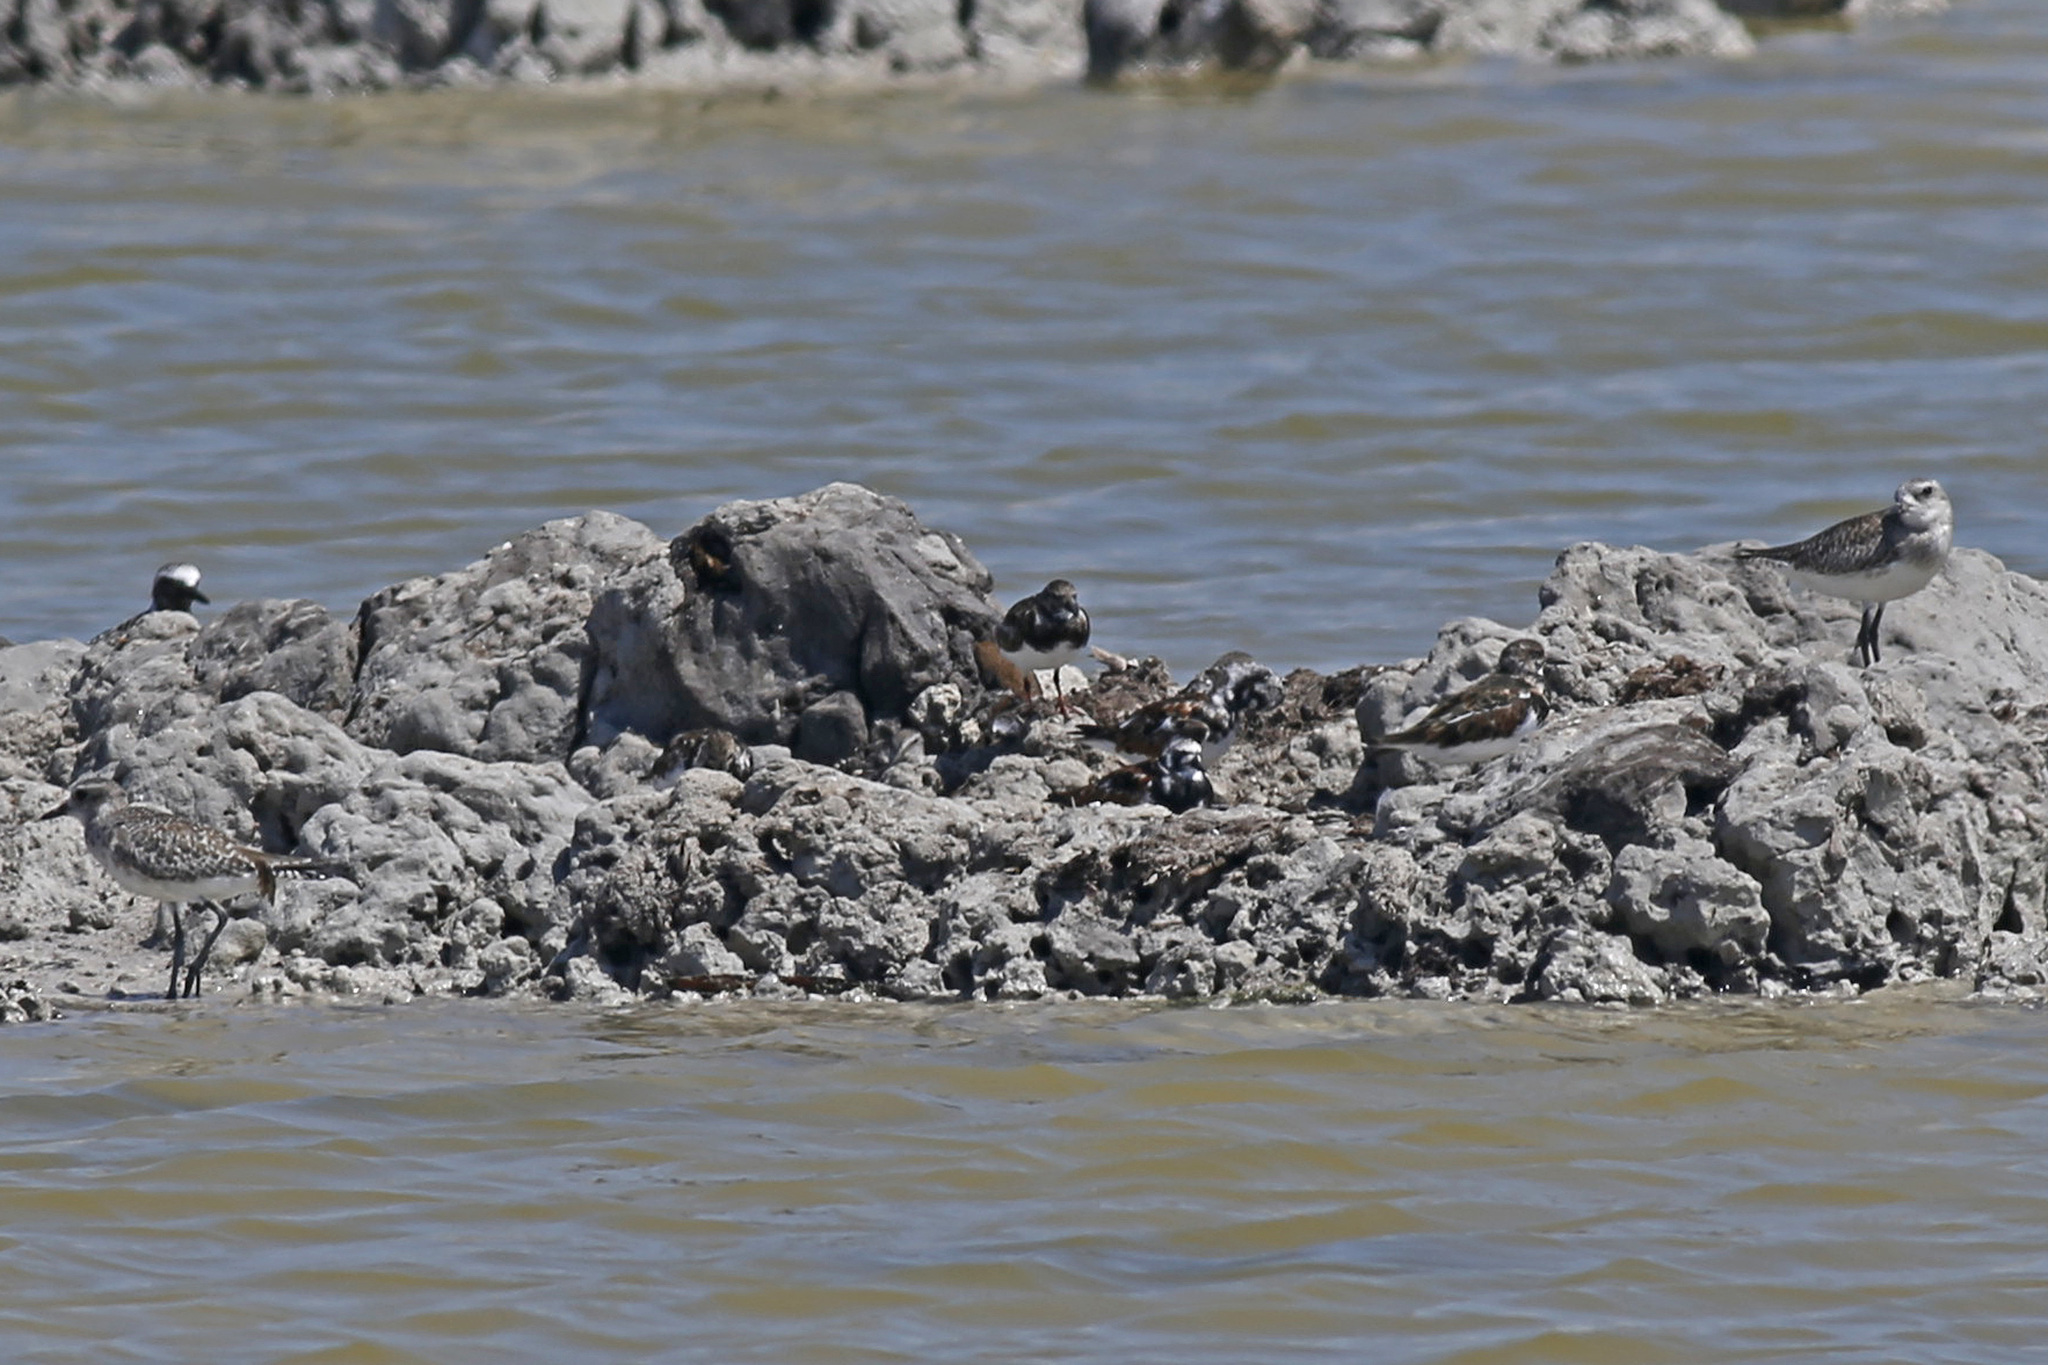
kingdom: Animalia
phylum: Chordata
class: Aves
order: Charadriiformes
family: Scolopacidae
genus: Arenaria
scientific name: Arenaria interpres
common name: Ruddy turnstone
